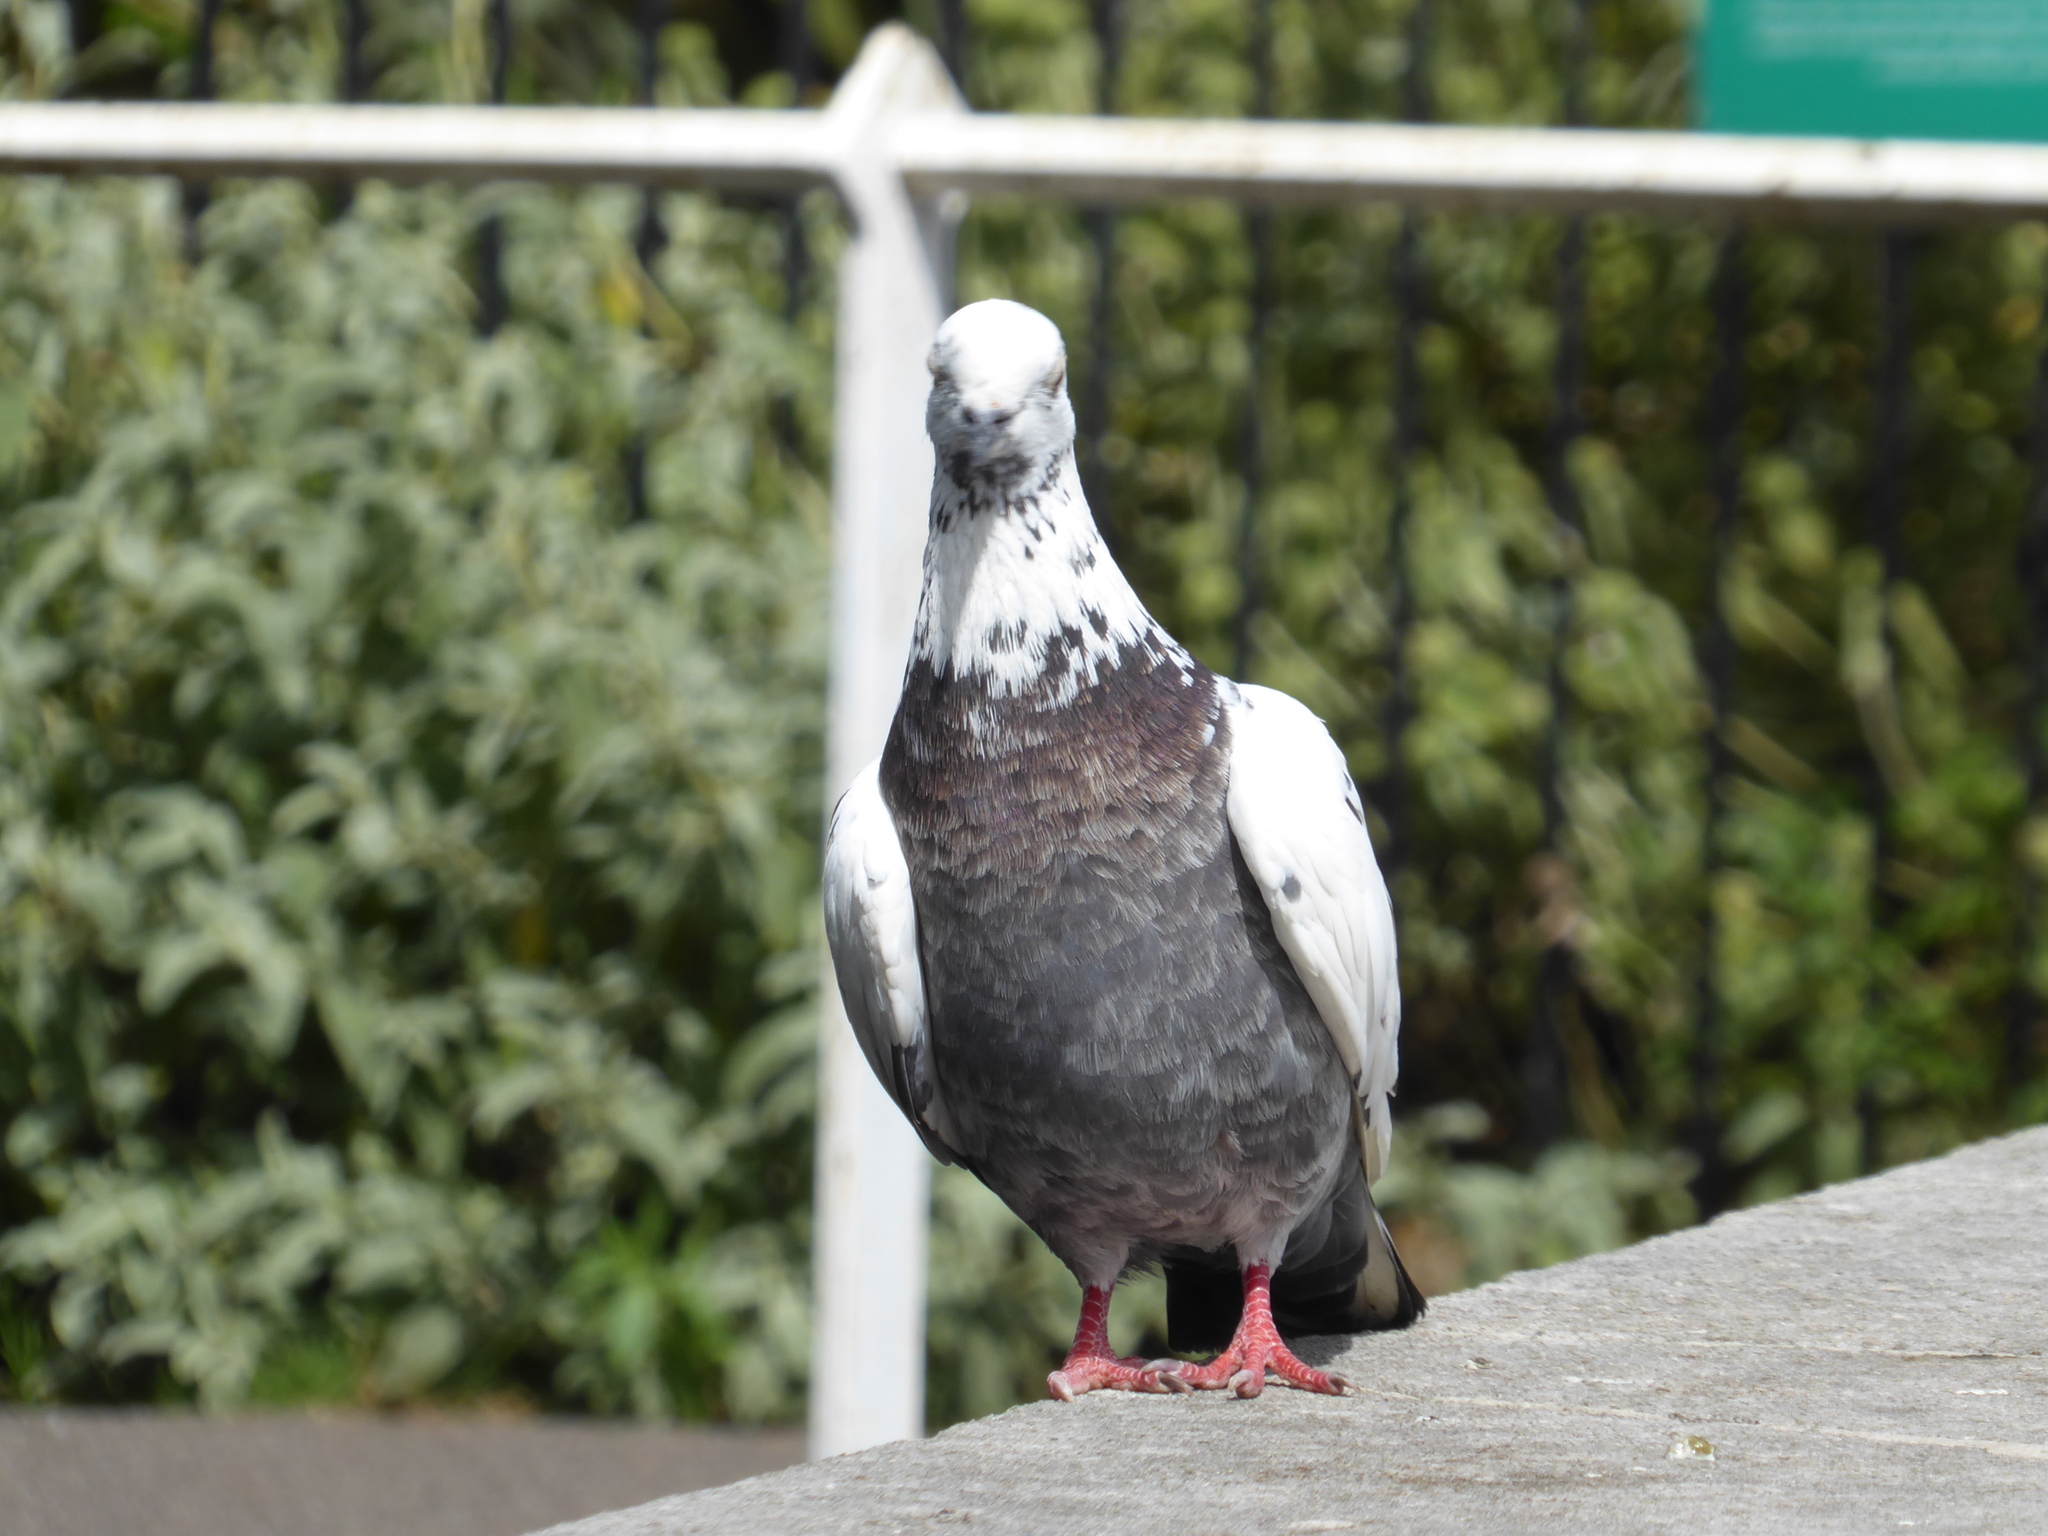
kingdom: Animalia
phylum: Chordata
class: Aves
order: Columbiformes
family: Columbidae
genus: Columba
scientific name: Columba livia
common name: Rock pigeon
